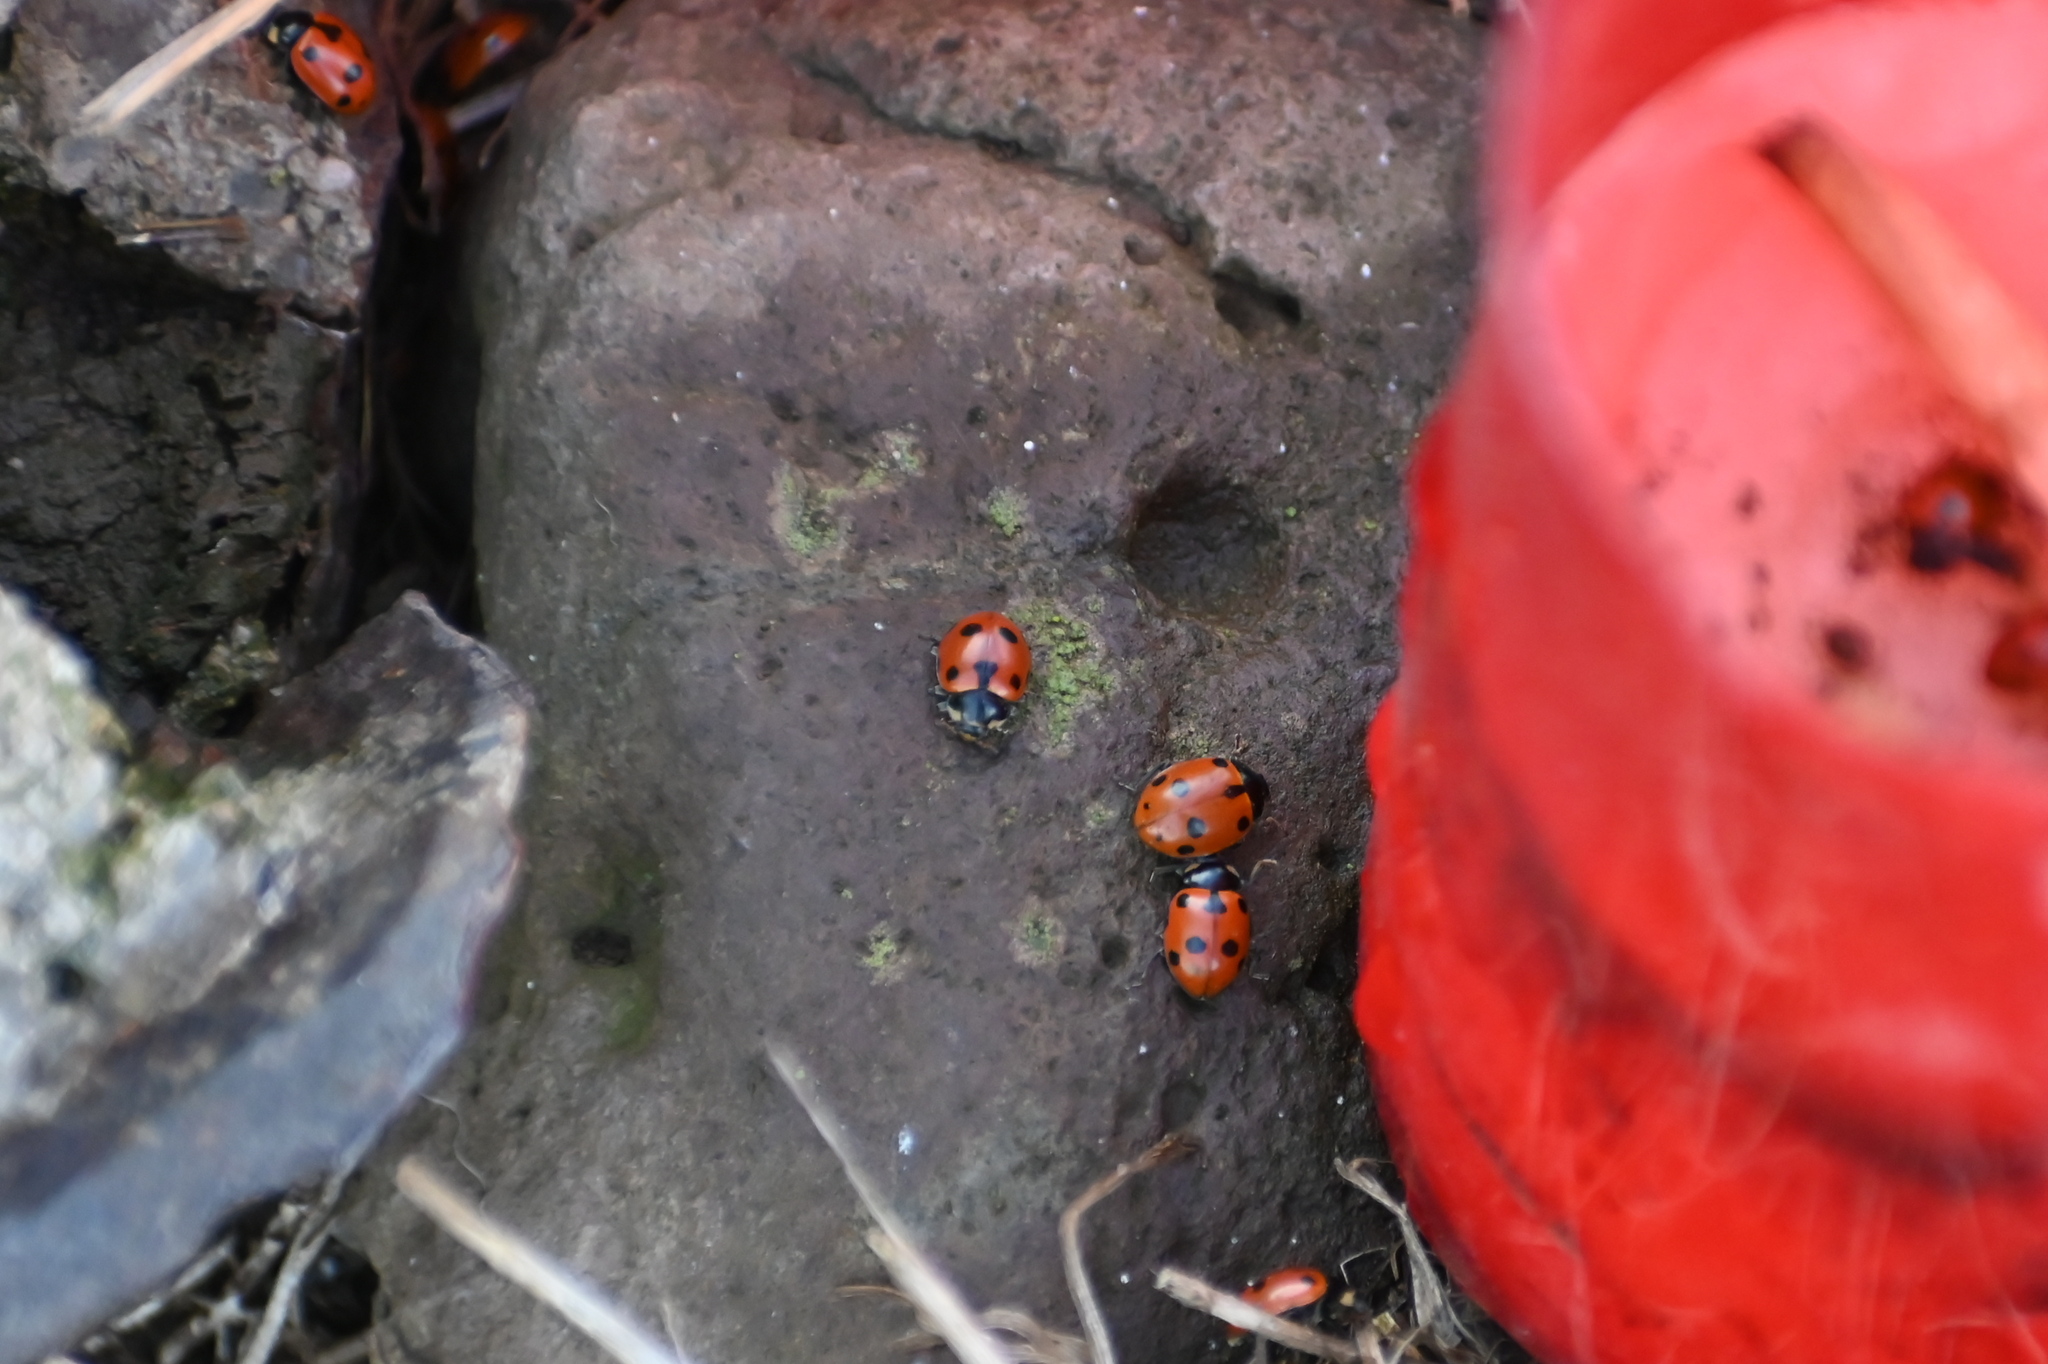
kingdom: Animalia
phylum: Arthropoda
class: Insecta
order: Coleoptera
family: Coccinellidae
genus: Ceratomegilla
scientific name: Ceratomegilla undecimnotata
